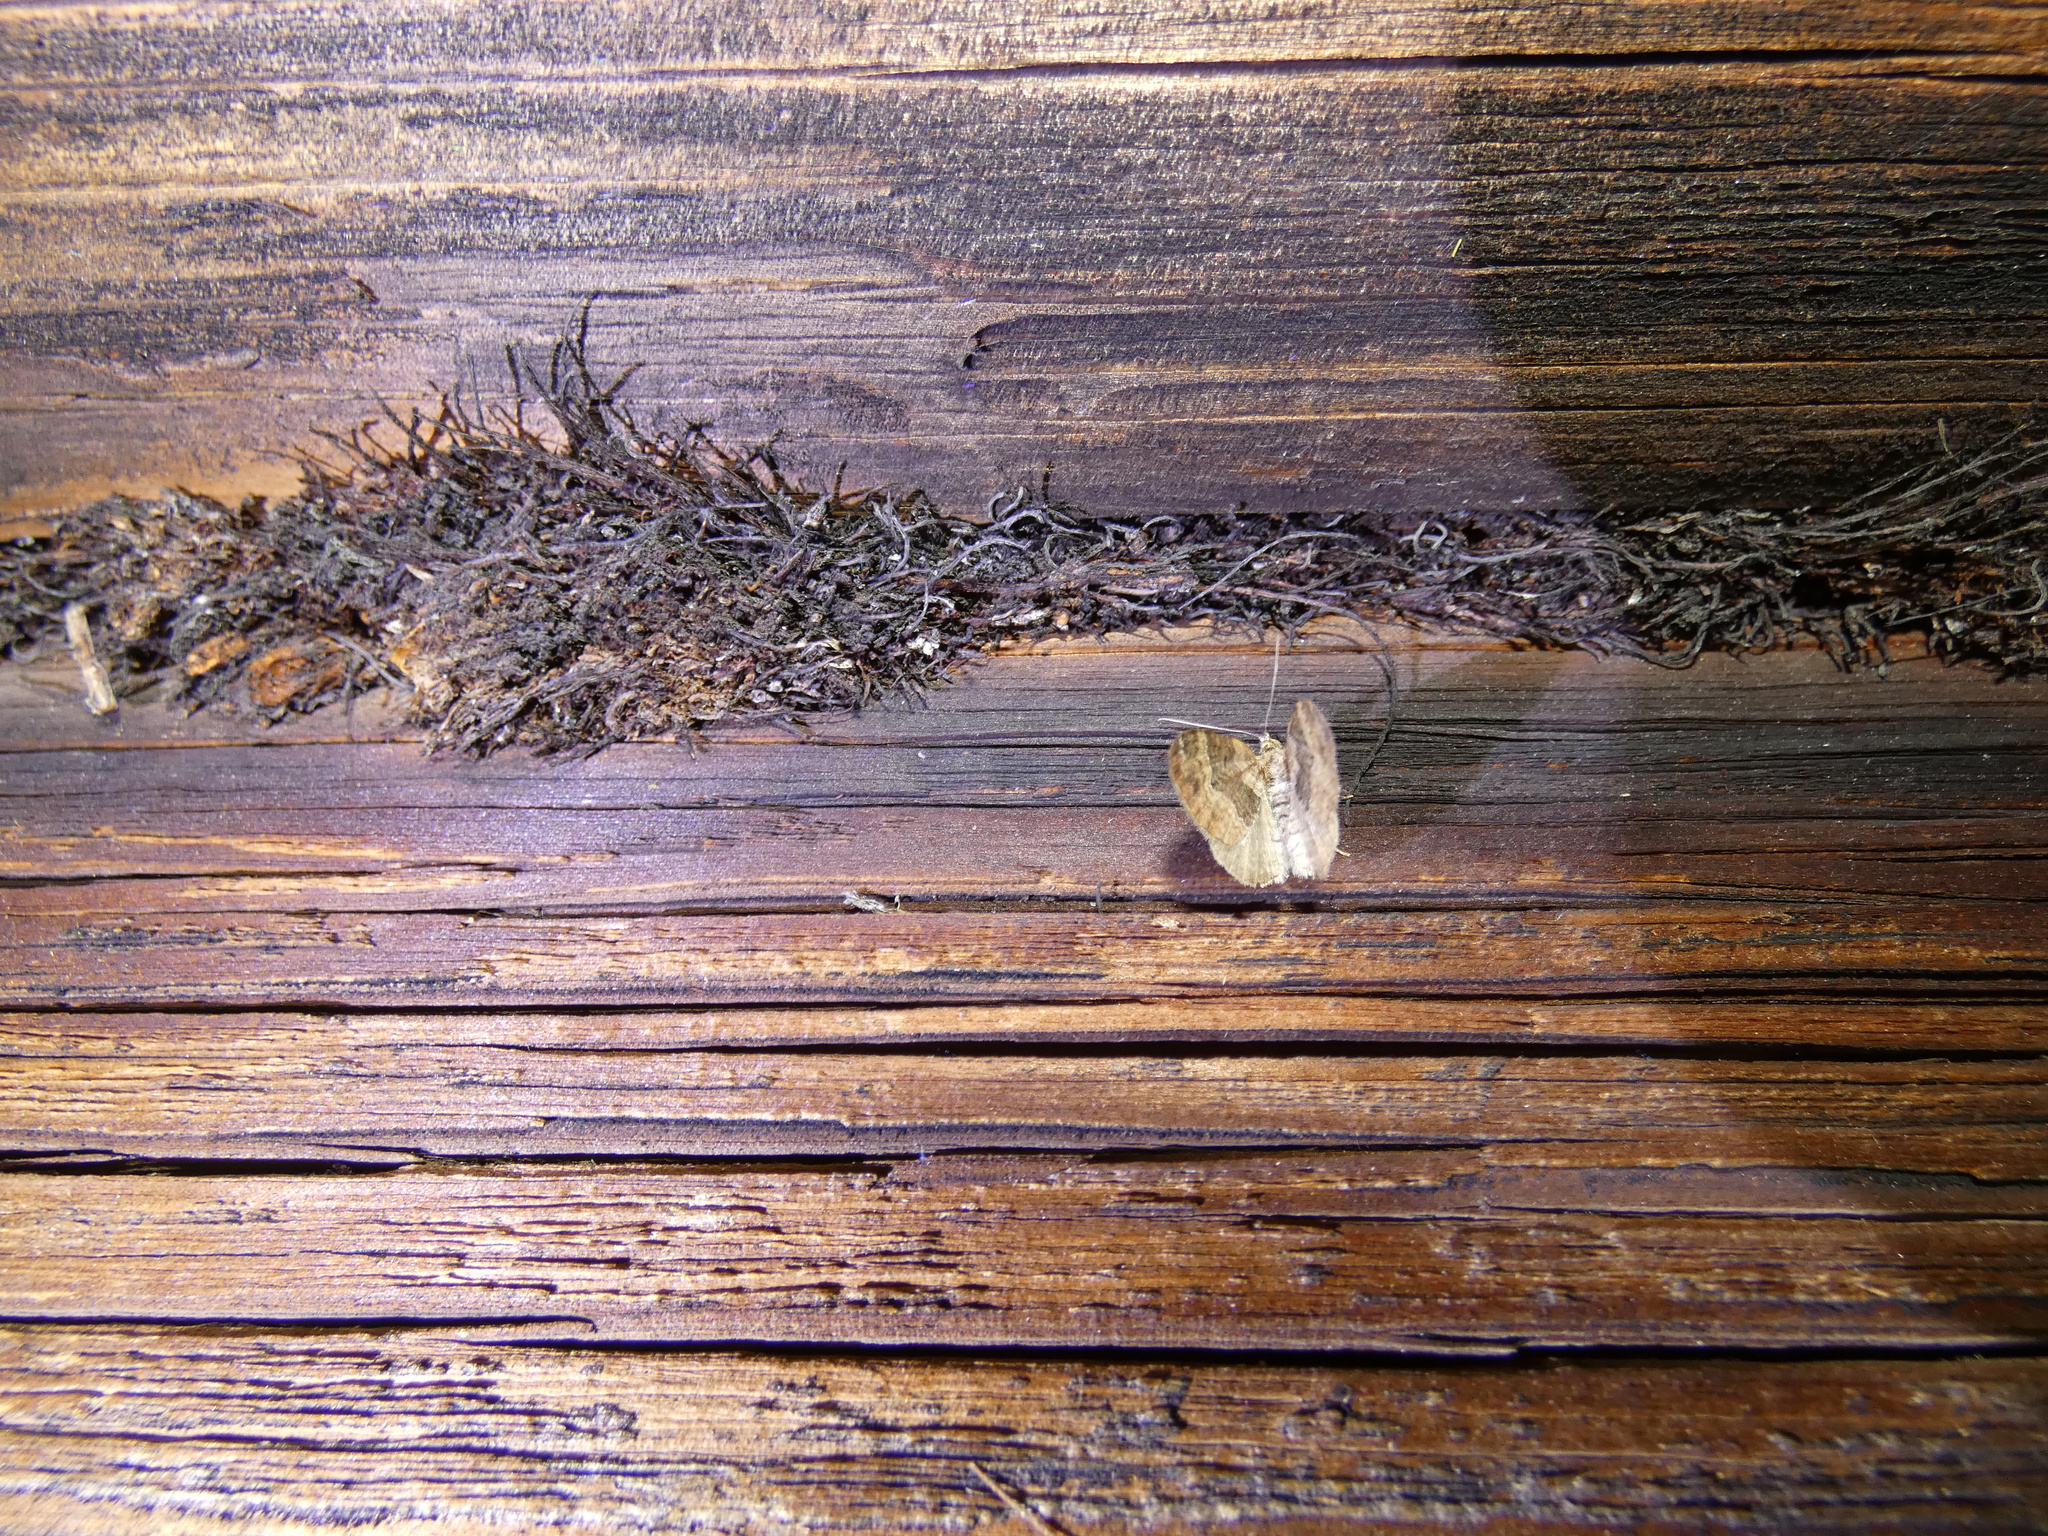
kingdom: Animalia
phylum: Arthropoda
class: Insecta
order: Lepidoptera
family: Geometridae
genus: Xanthorhoe
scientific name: Xanthorhoe quadrifasiata
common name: Large twin-spot carpet
